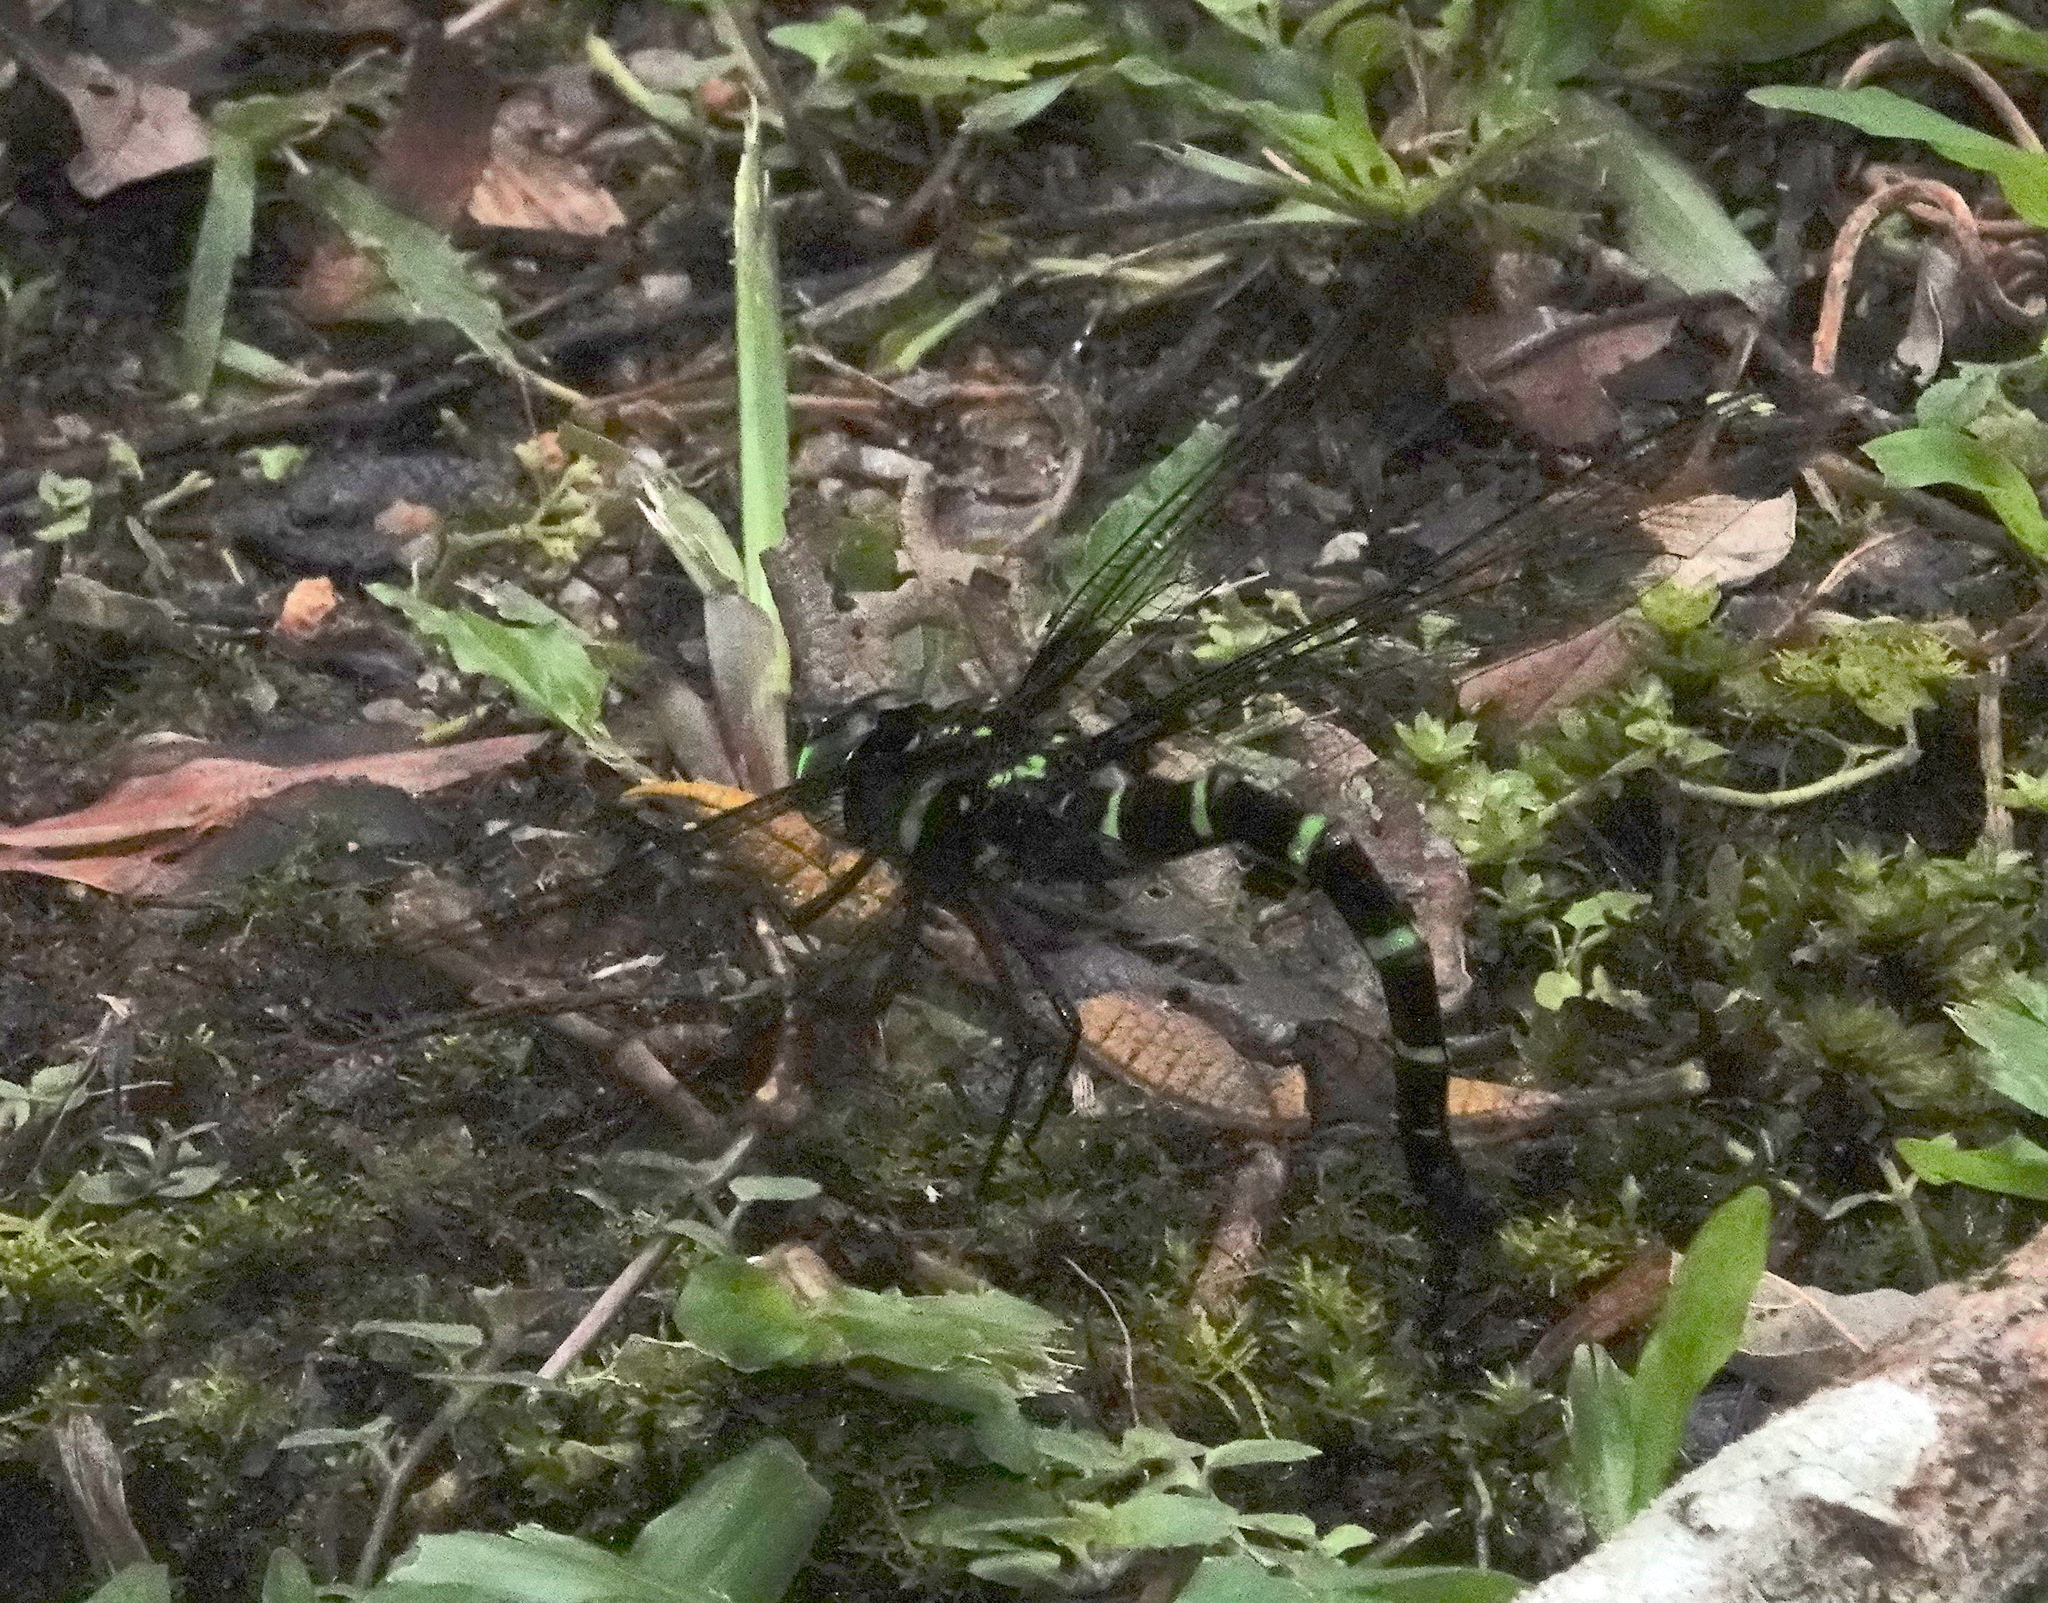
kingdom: Animalia
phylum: Arthropoda
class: Insecta
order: Odonata
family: Aeshnidae
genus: Indaeschna
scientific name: Indaeschna grubaueri
